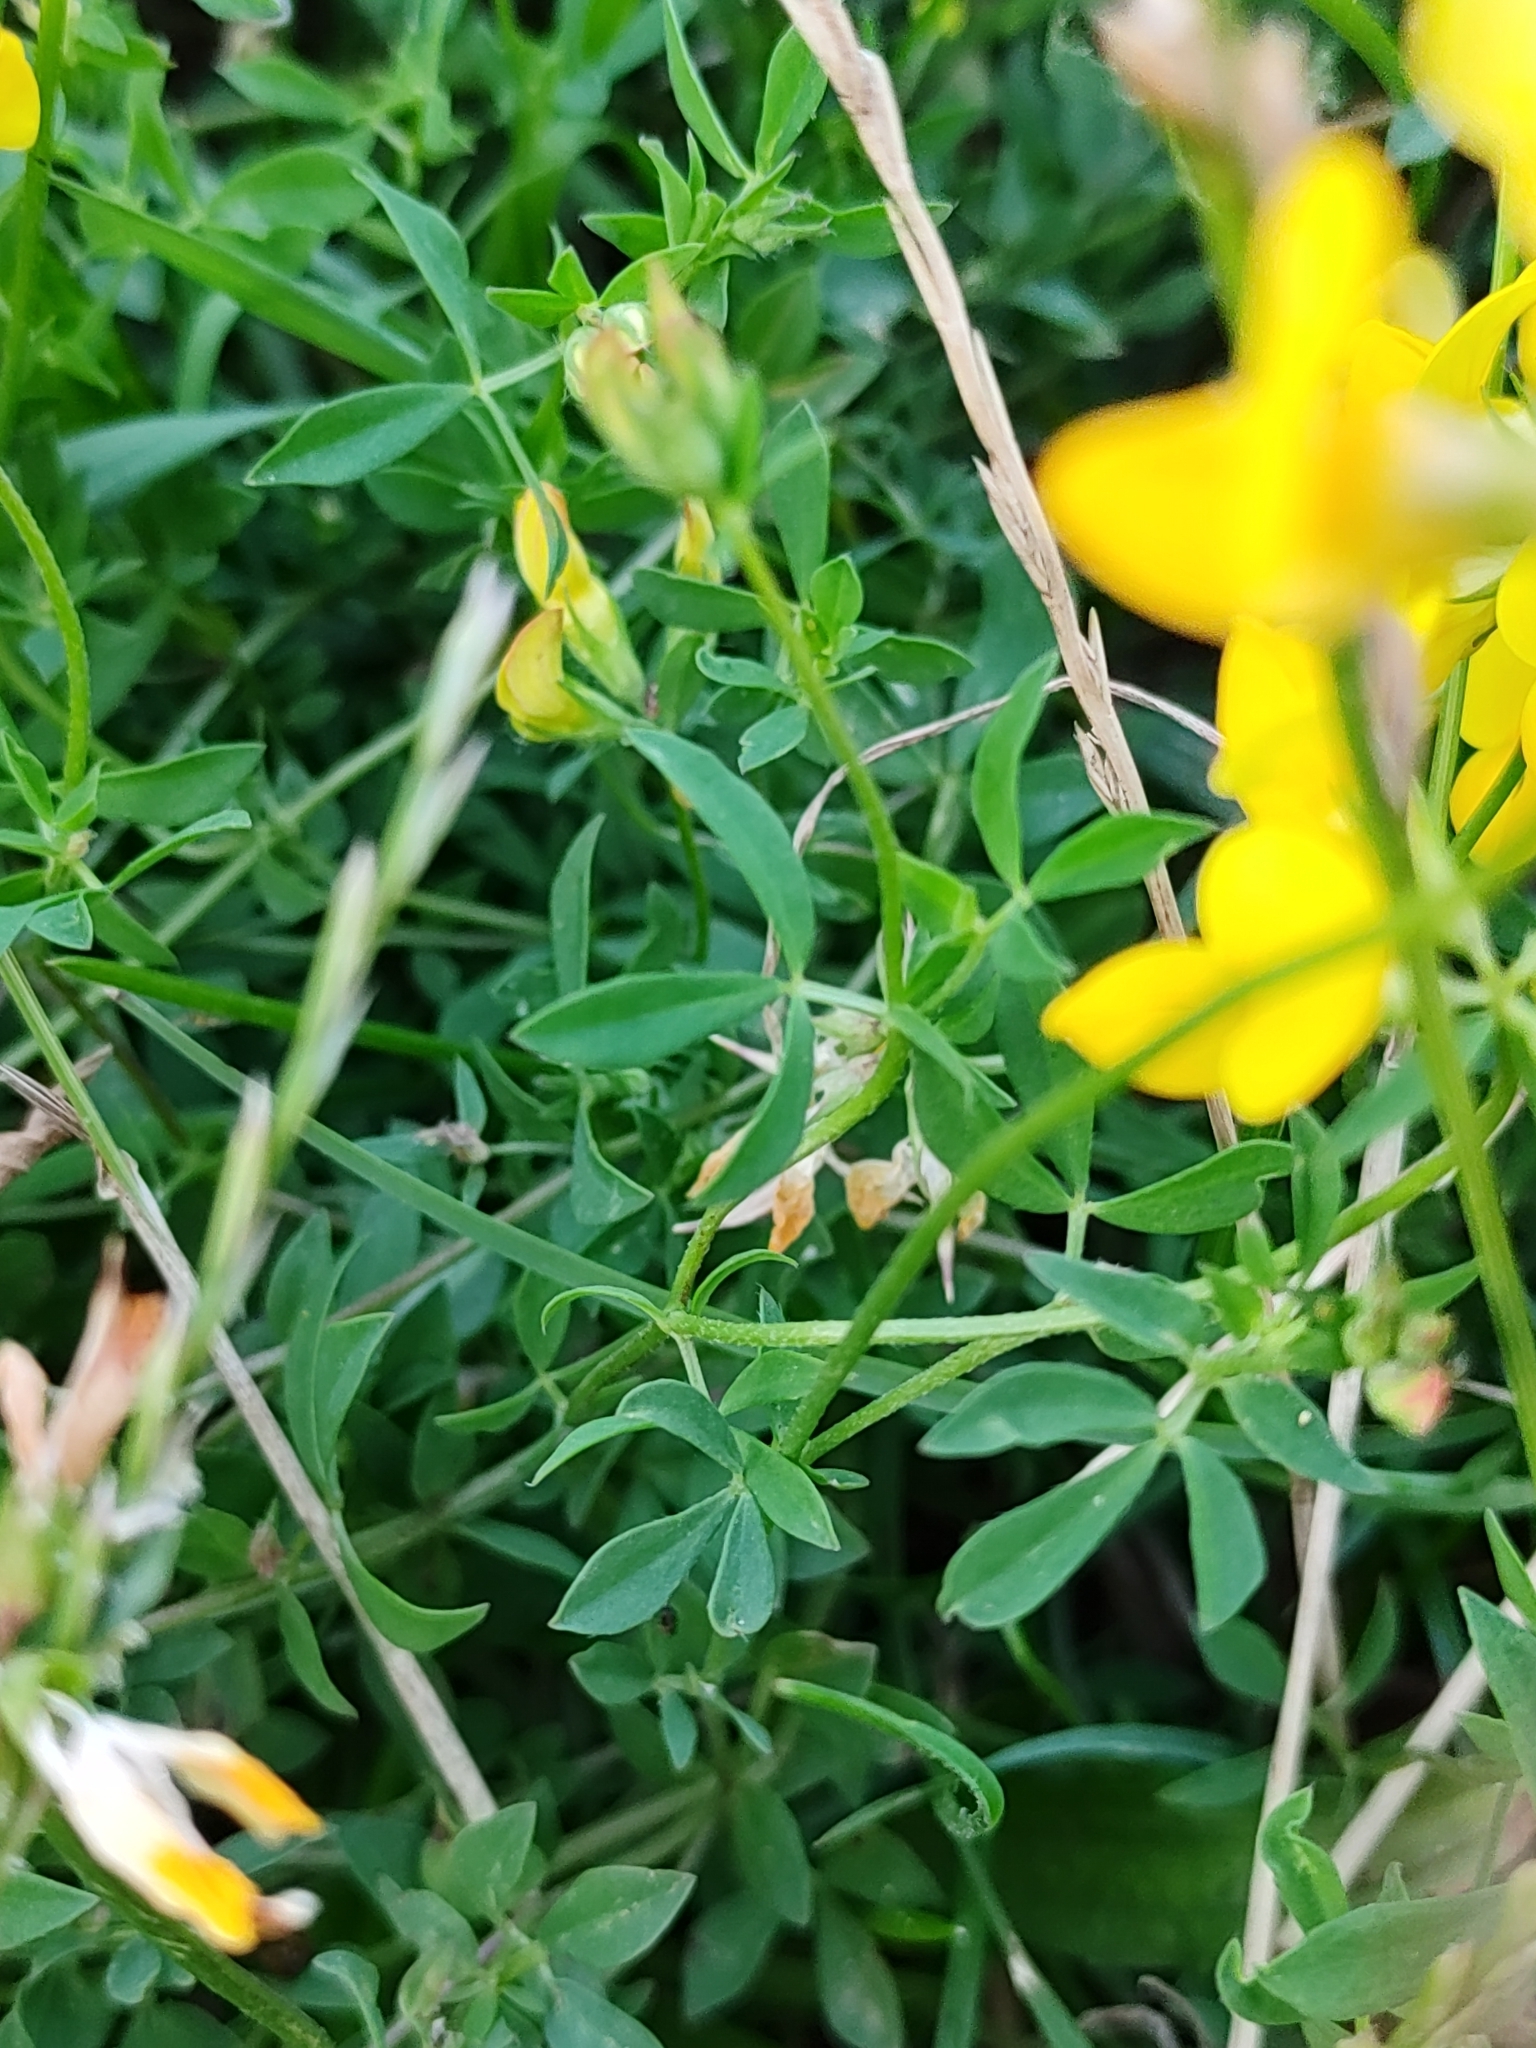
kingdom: Plantae
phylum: Tracheophyta
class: Magnoliopsida
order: Fabales
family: Fabaceae
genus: Lotus
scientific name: Lotus corniculatus
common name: Common bird's-foot-trefoil
